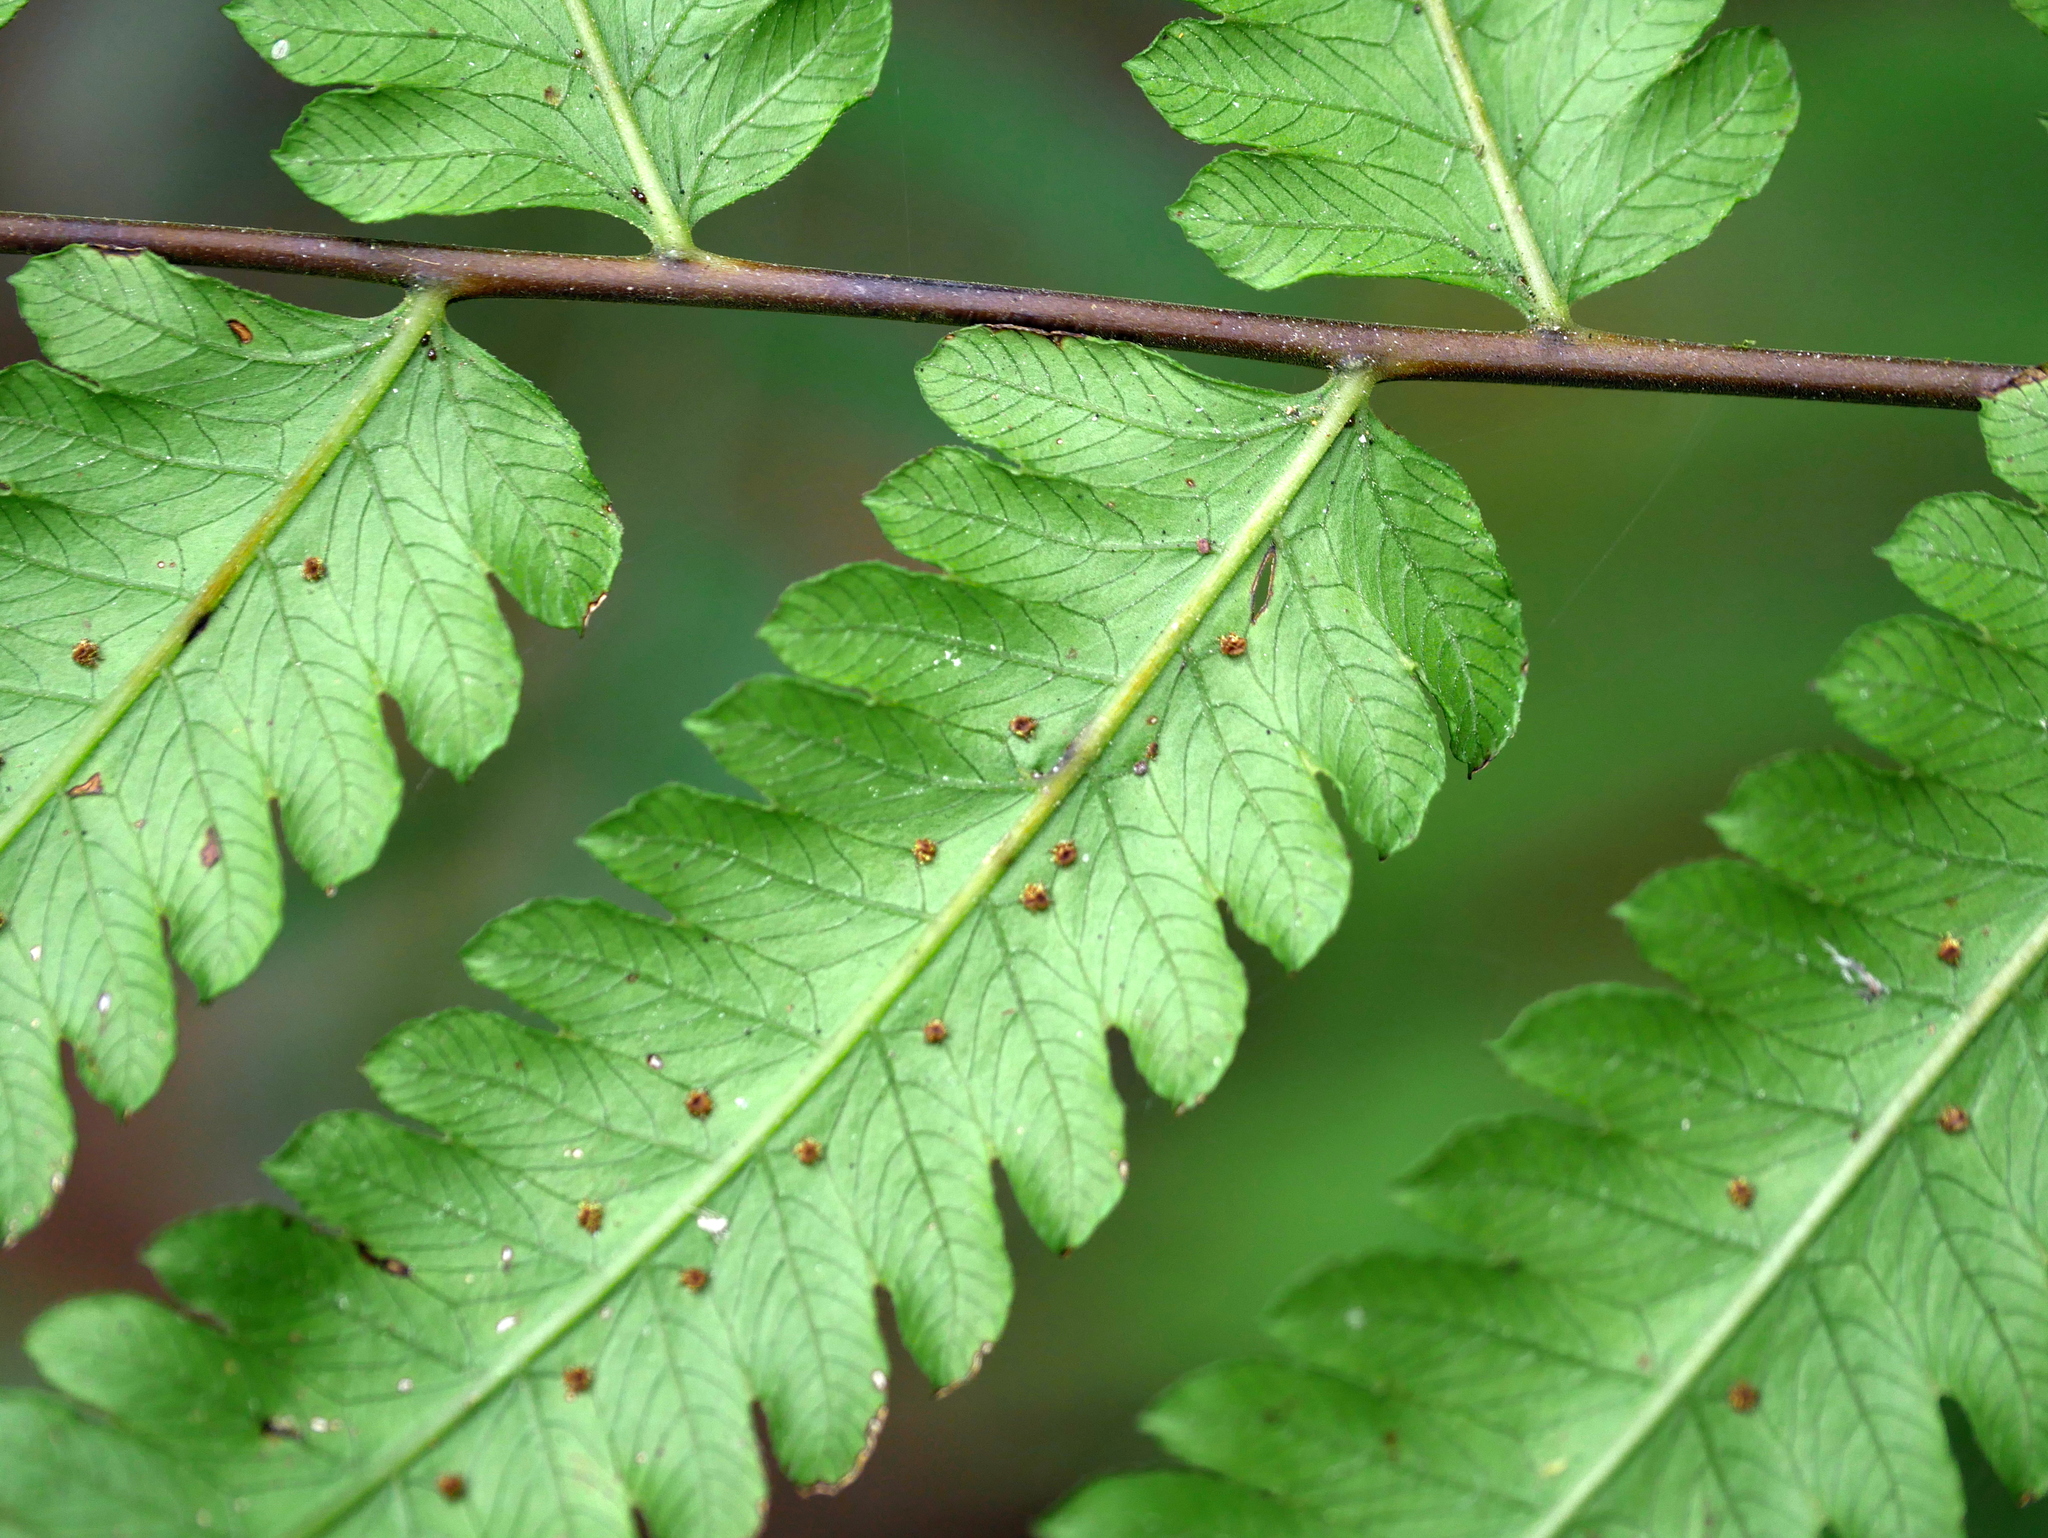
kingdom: Plantae
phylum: Tracheophyta
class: Polypodiopsida
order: Polypodiales
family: Thelypteridaceae
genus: Christella
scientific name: Christella jaculosa
